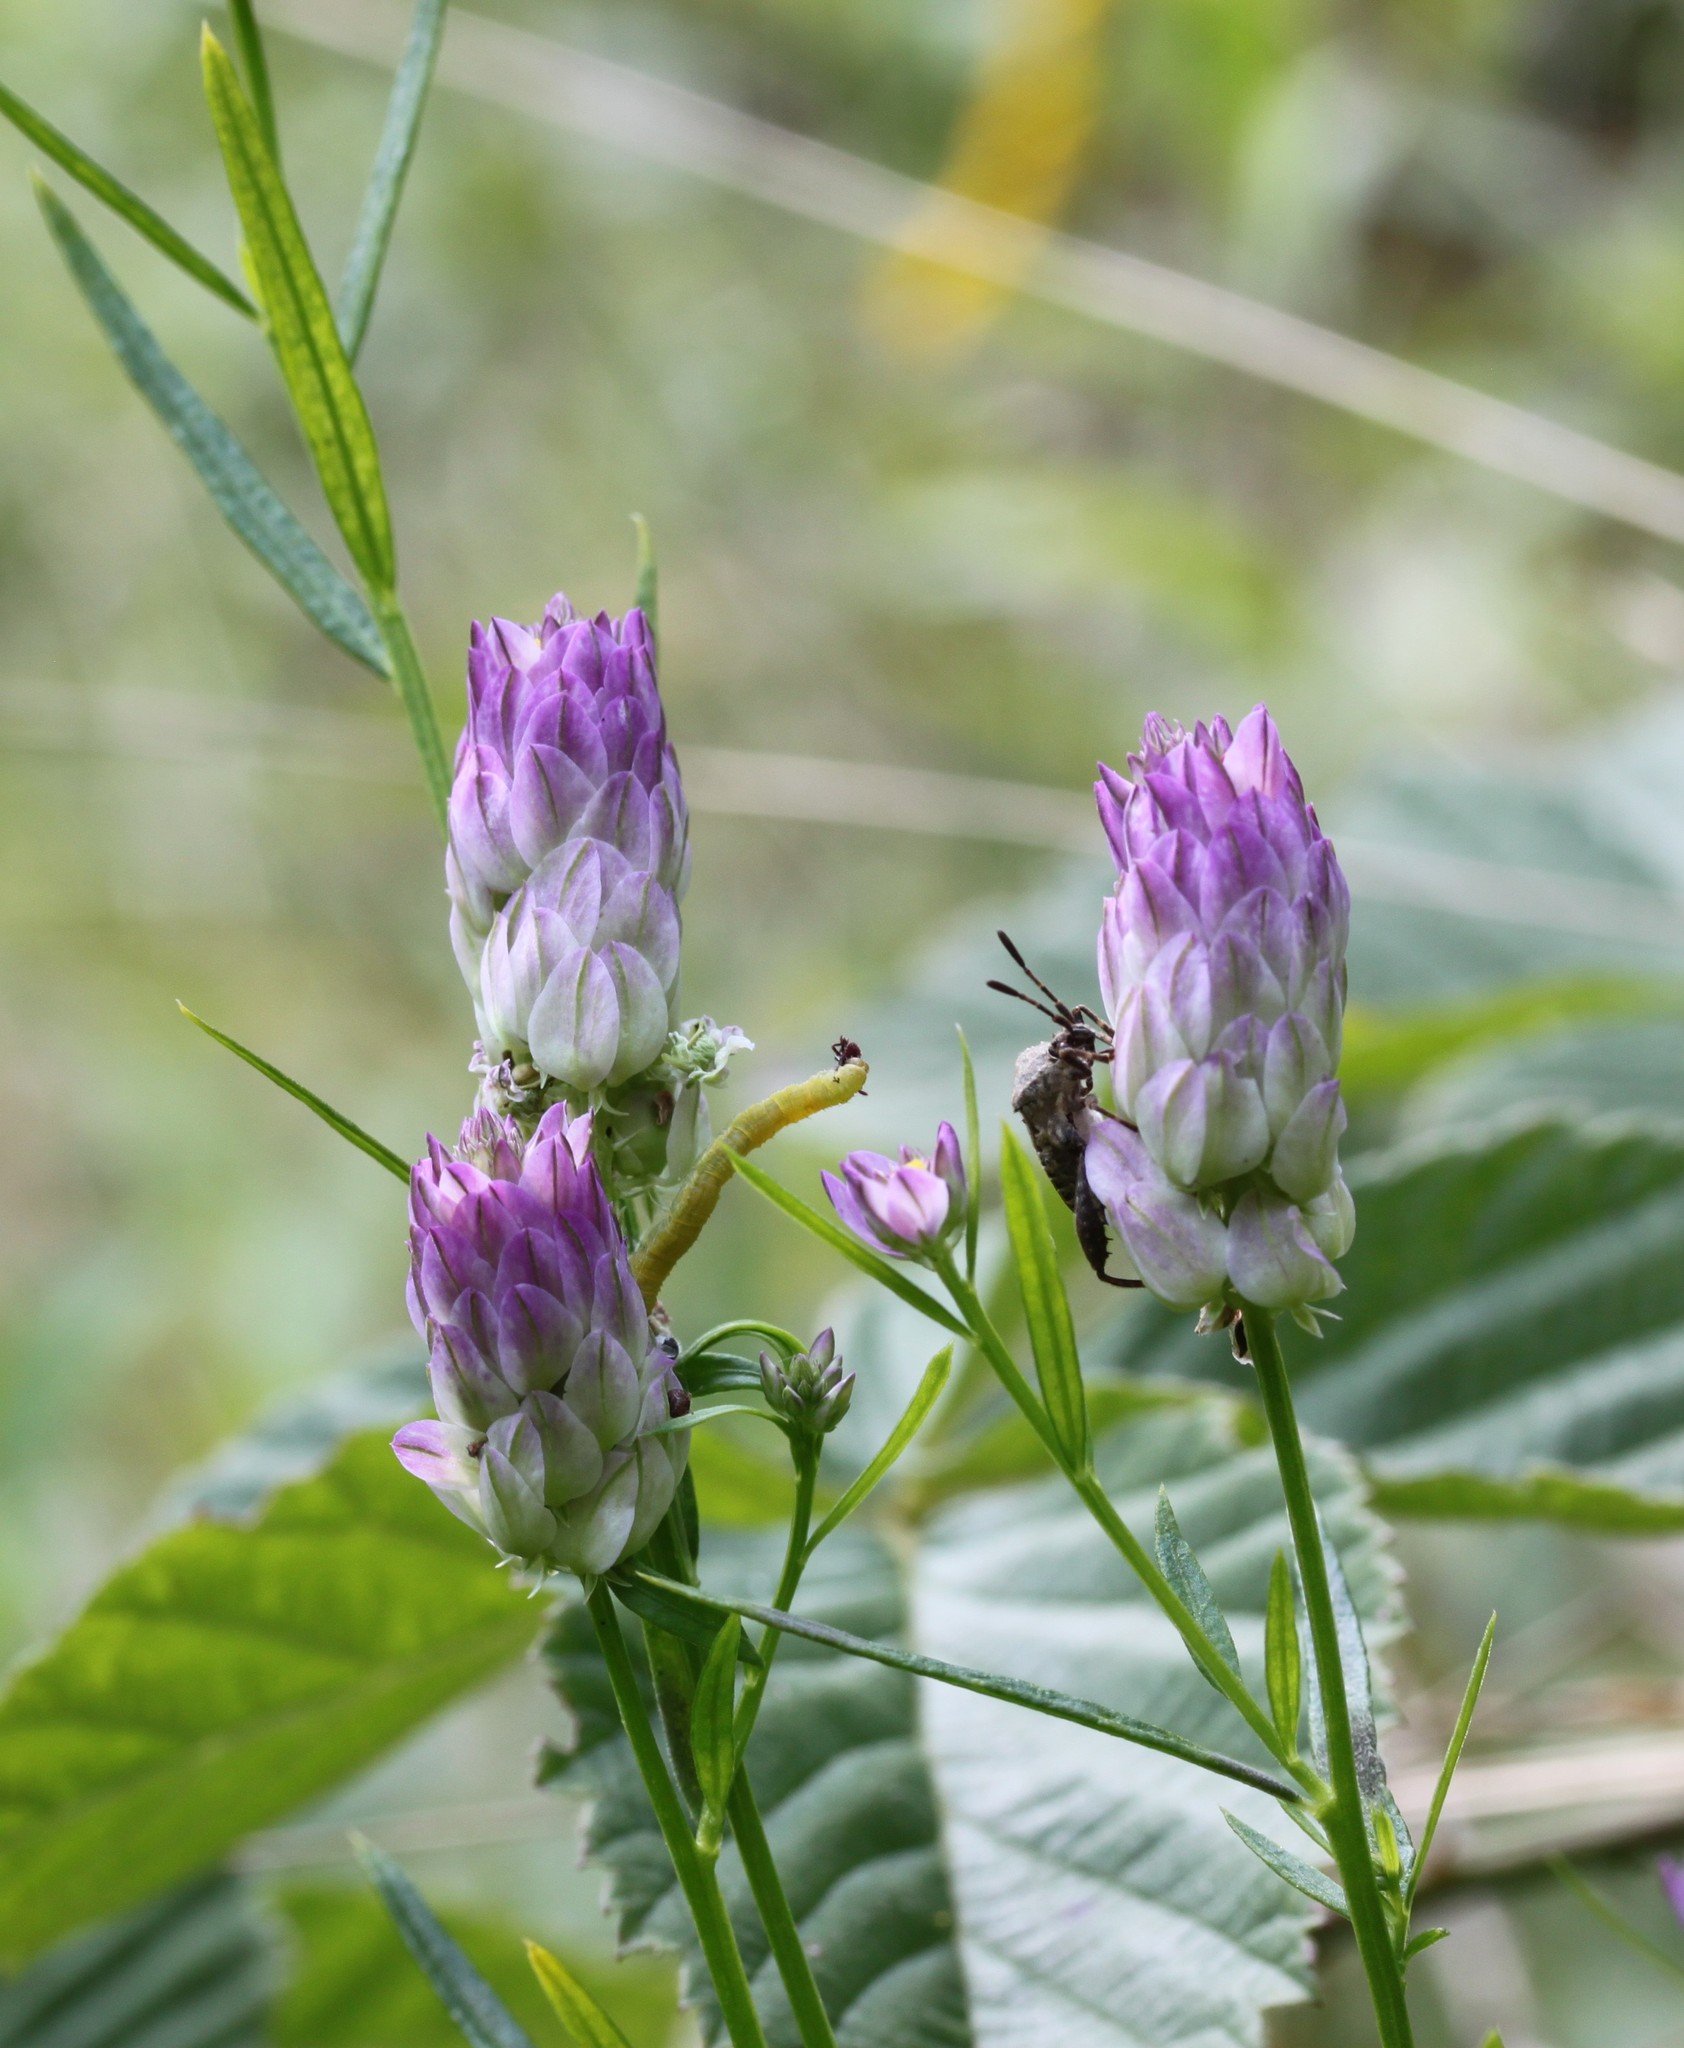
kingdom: Plantae
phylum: Tracheophyta
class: Magnoliopsida
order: Fabales
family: Polygalaceae
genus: Polygala
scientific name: Polygala sanguinea
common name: Blood milkwort
